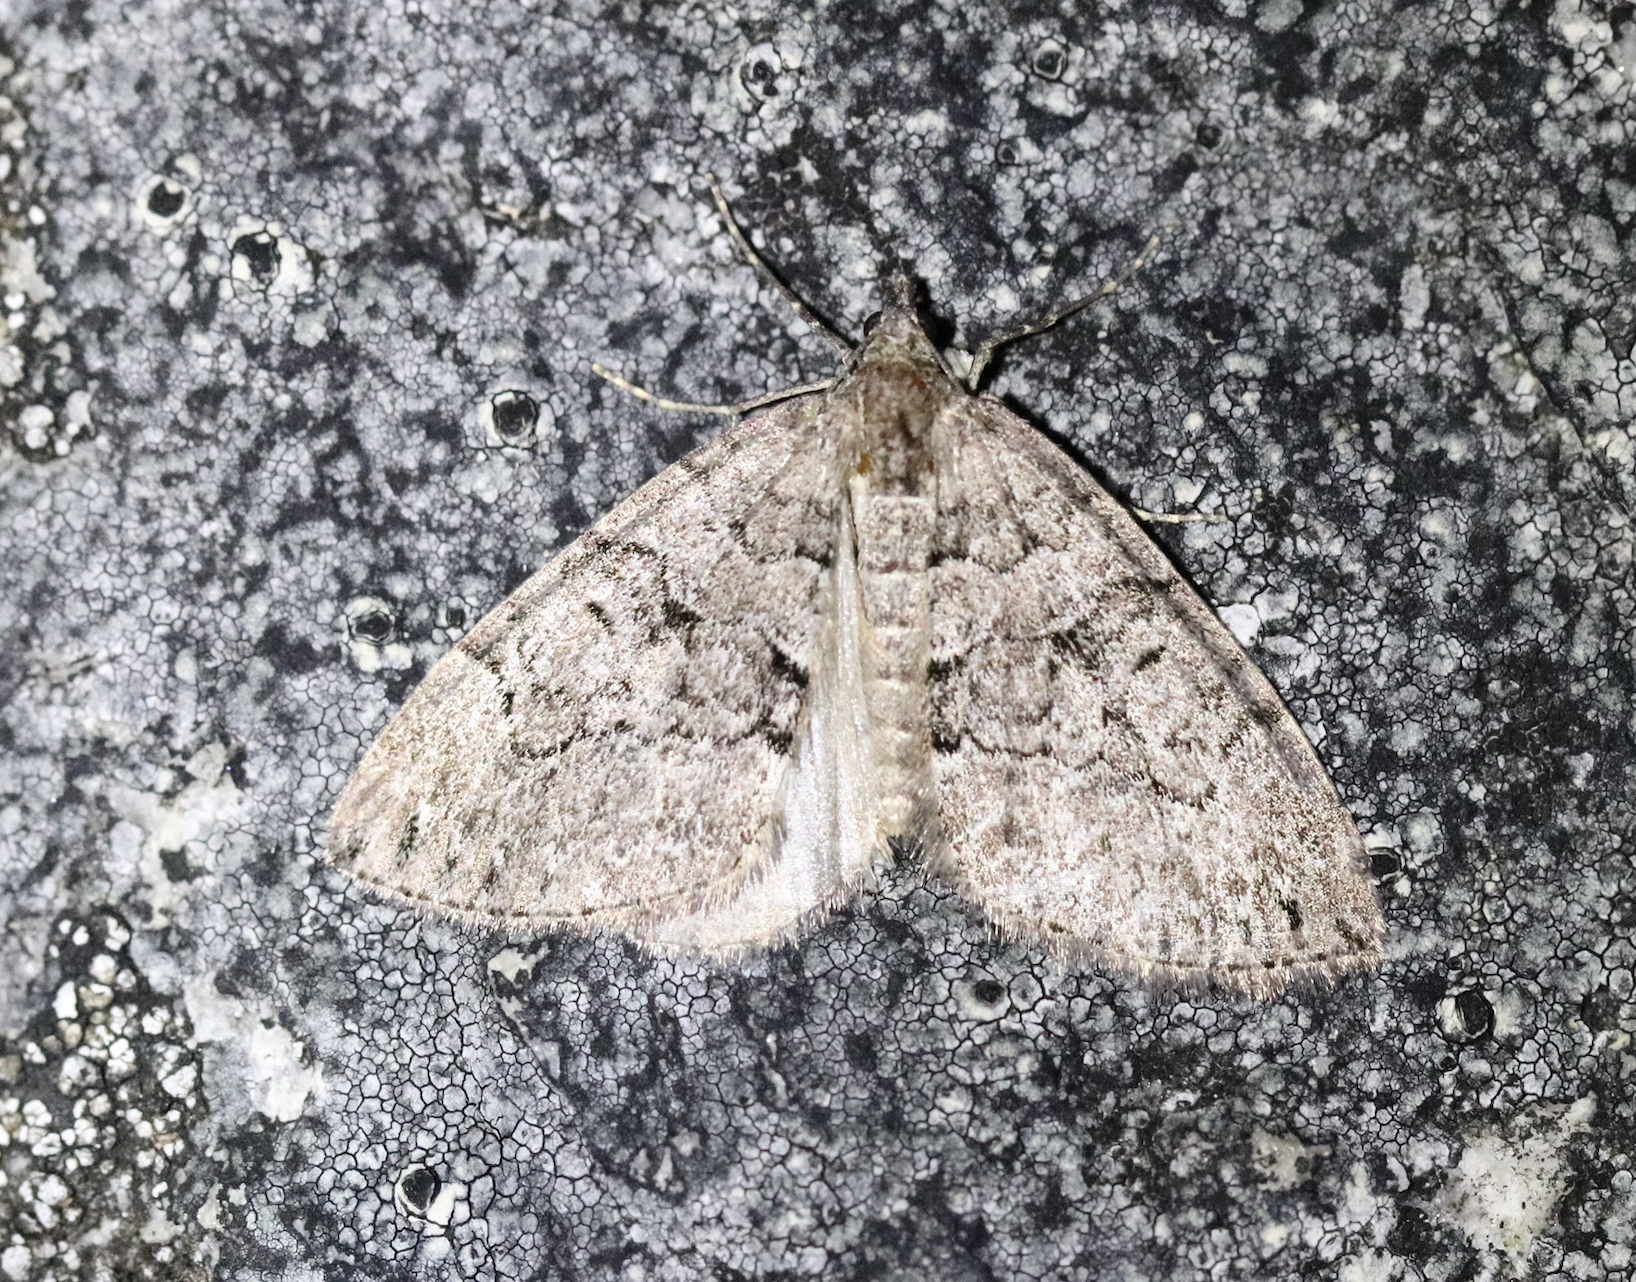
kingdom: Animalia
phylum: Arthropoda
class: Insecta
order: Lepidoptera
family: Geometridae
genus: Thera
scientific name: Thera cognata
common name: Chestnut-coloured carpet
